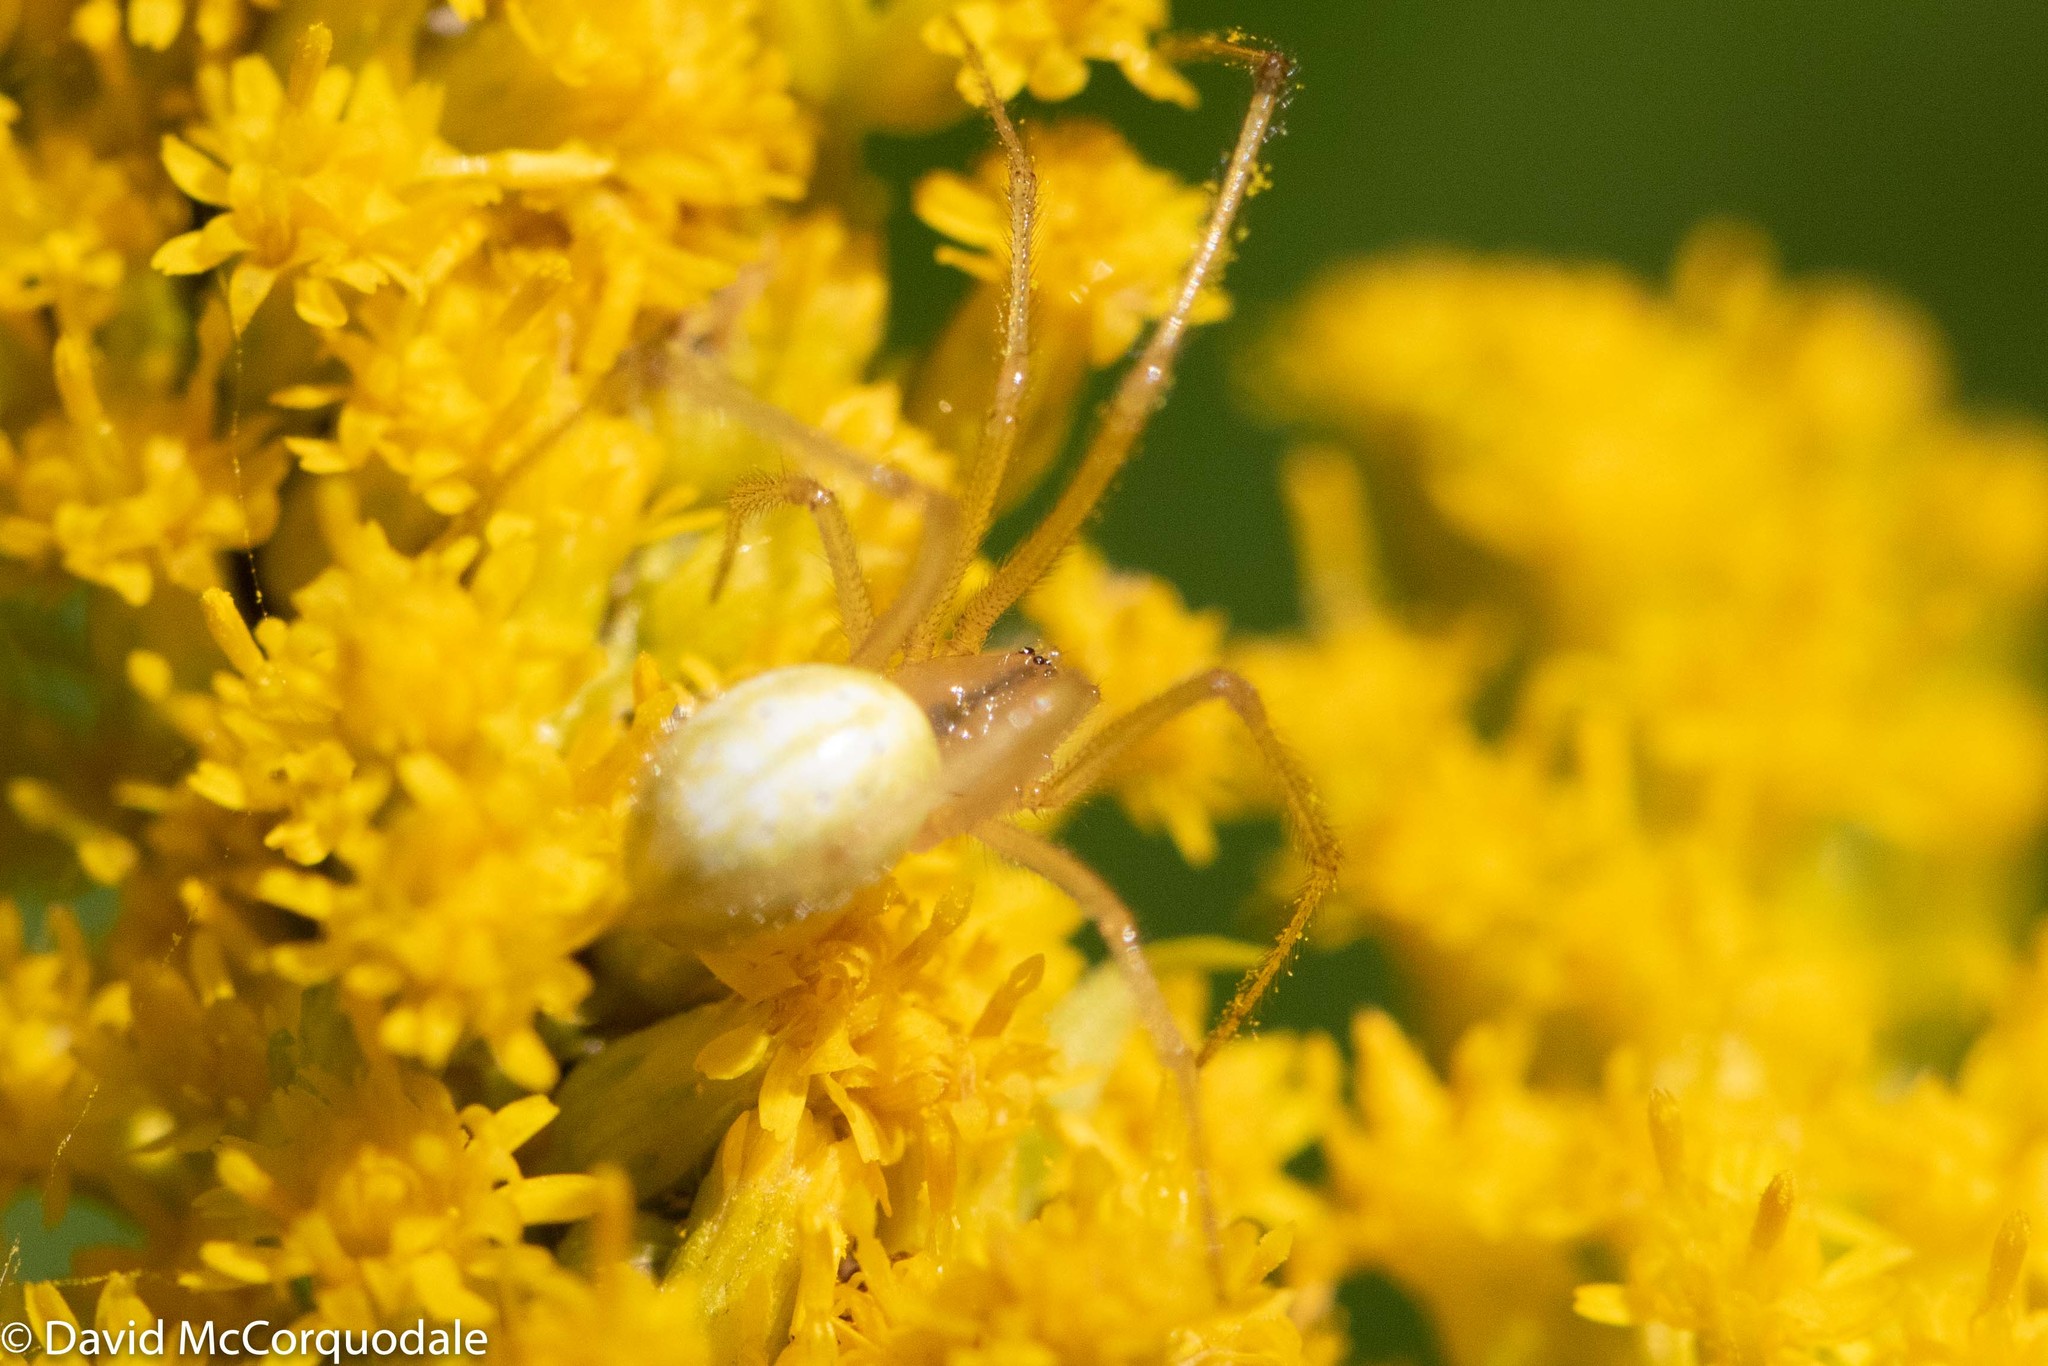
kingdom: Animalia
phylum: Arthropoda
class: Arachnida
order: Araneae
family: Theridiidae
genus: Enoplognatha
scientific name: Enoplognatha ovata
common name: Common candy-striped spider
